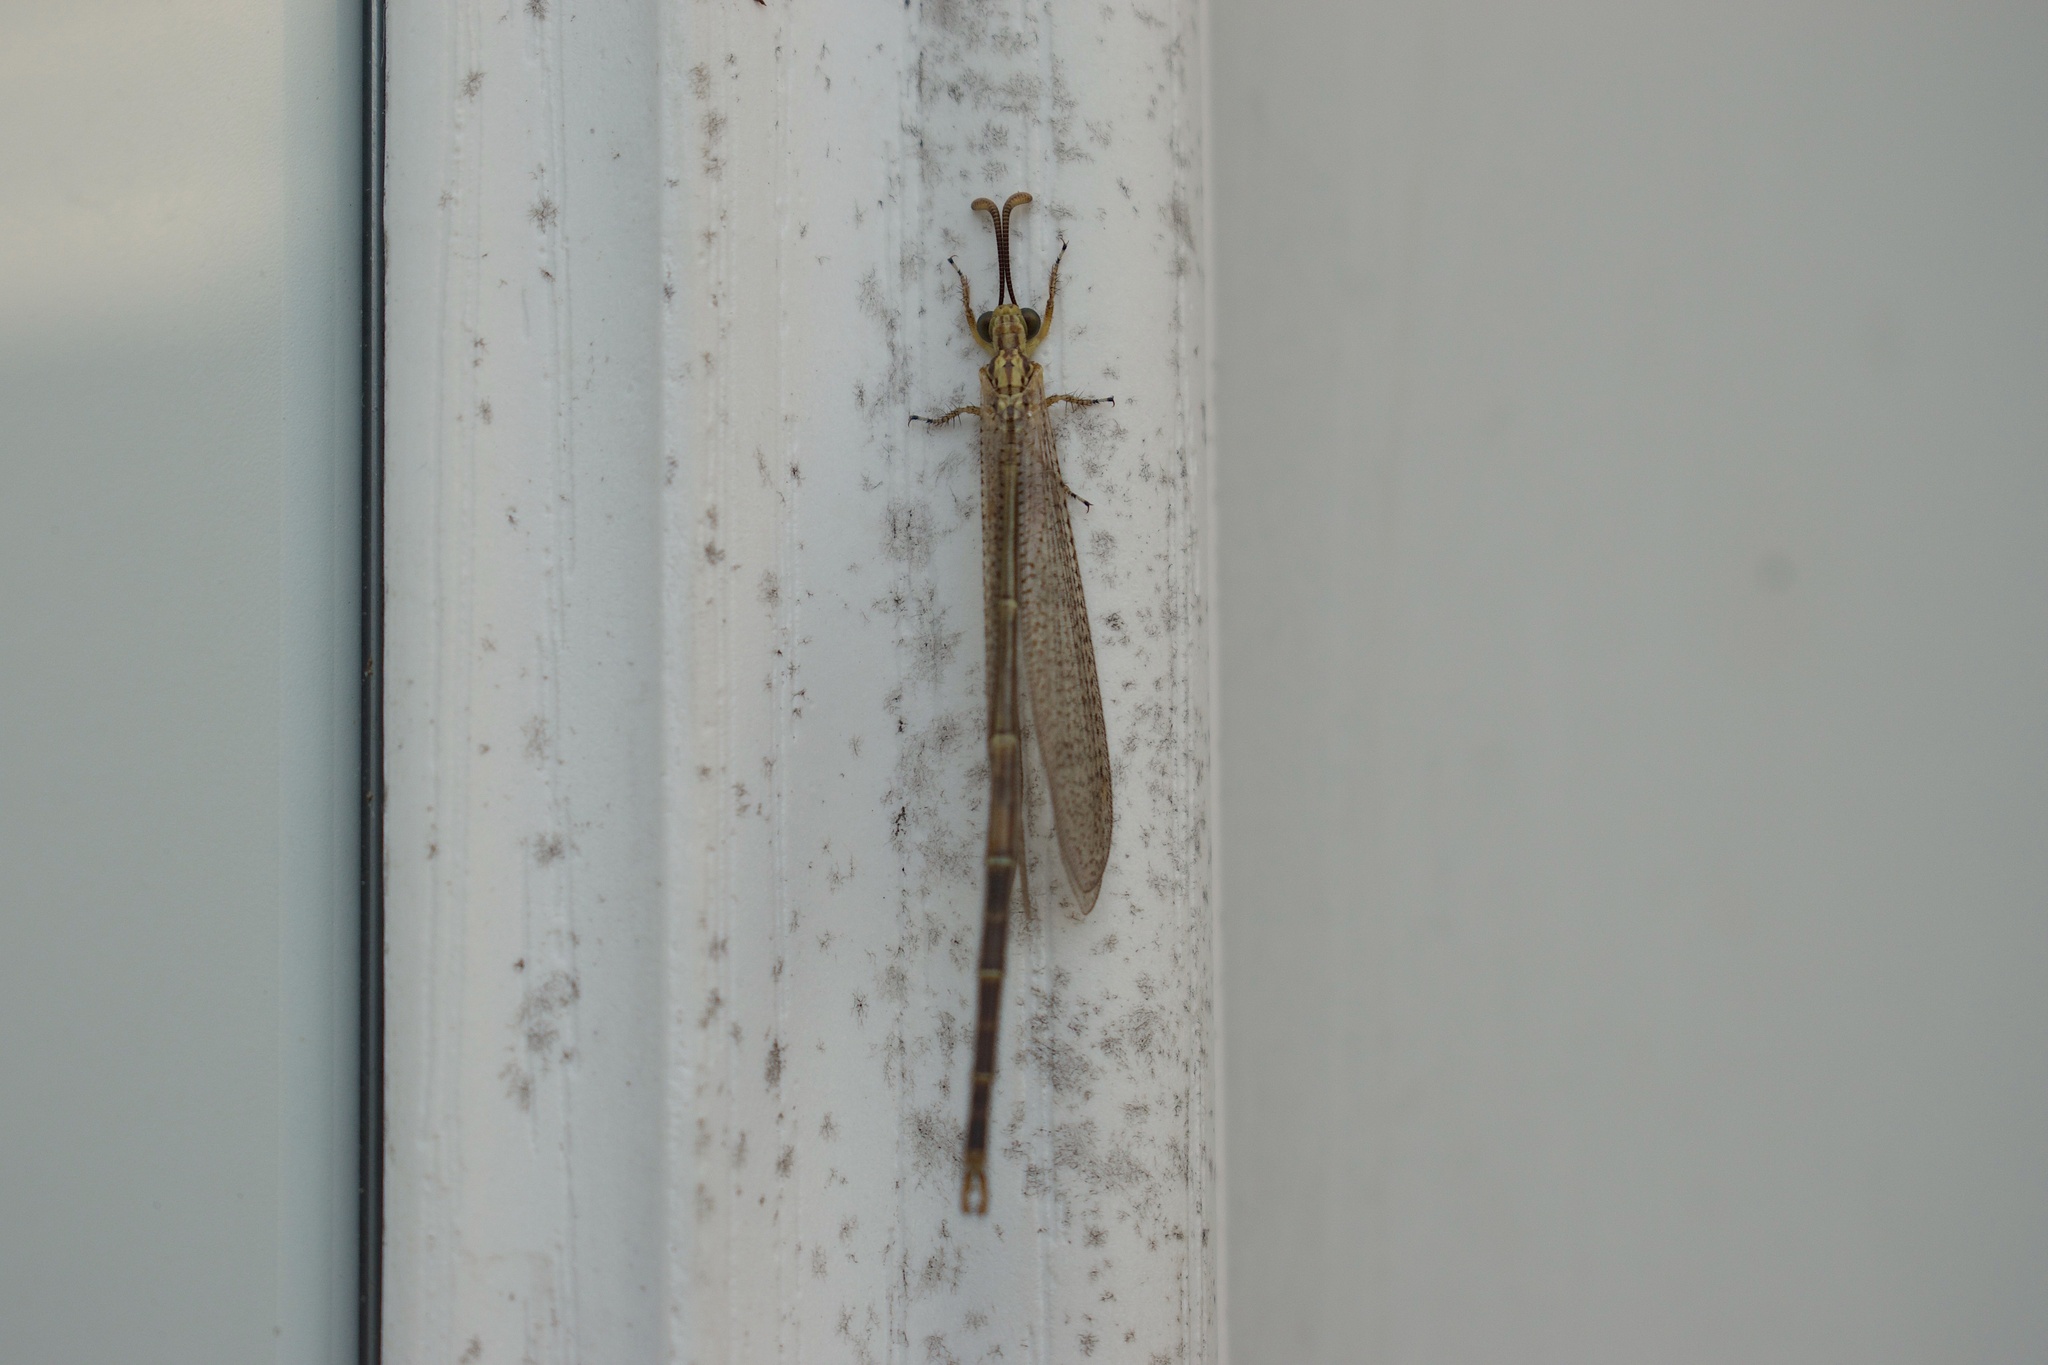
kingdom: Animalia
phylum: Arthropoda
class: Insecta
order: Neuroptera
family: Myrmeleontidae
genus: Brachynemurus
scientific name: Brachynemurus abdominalis
